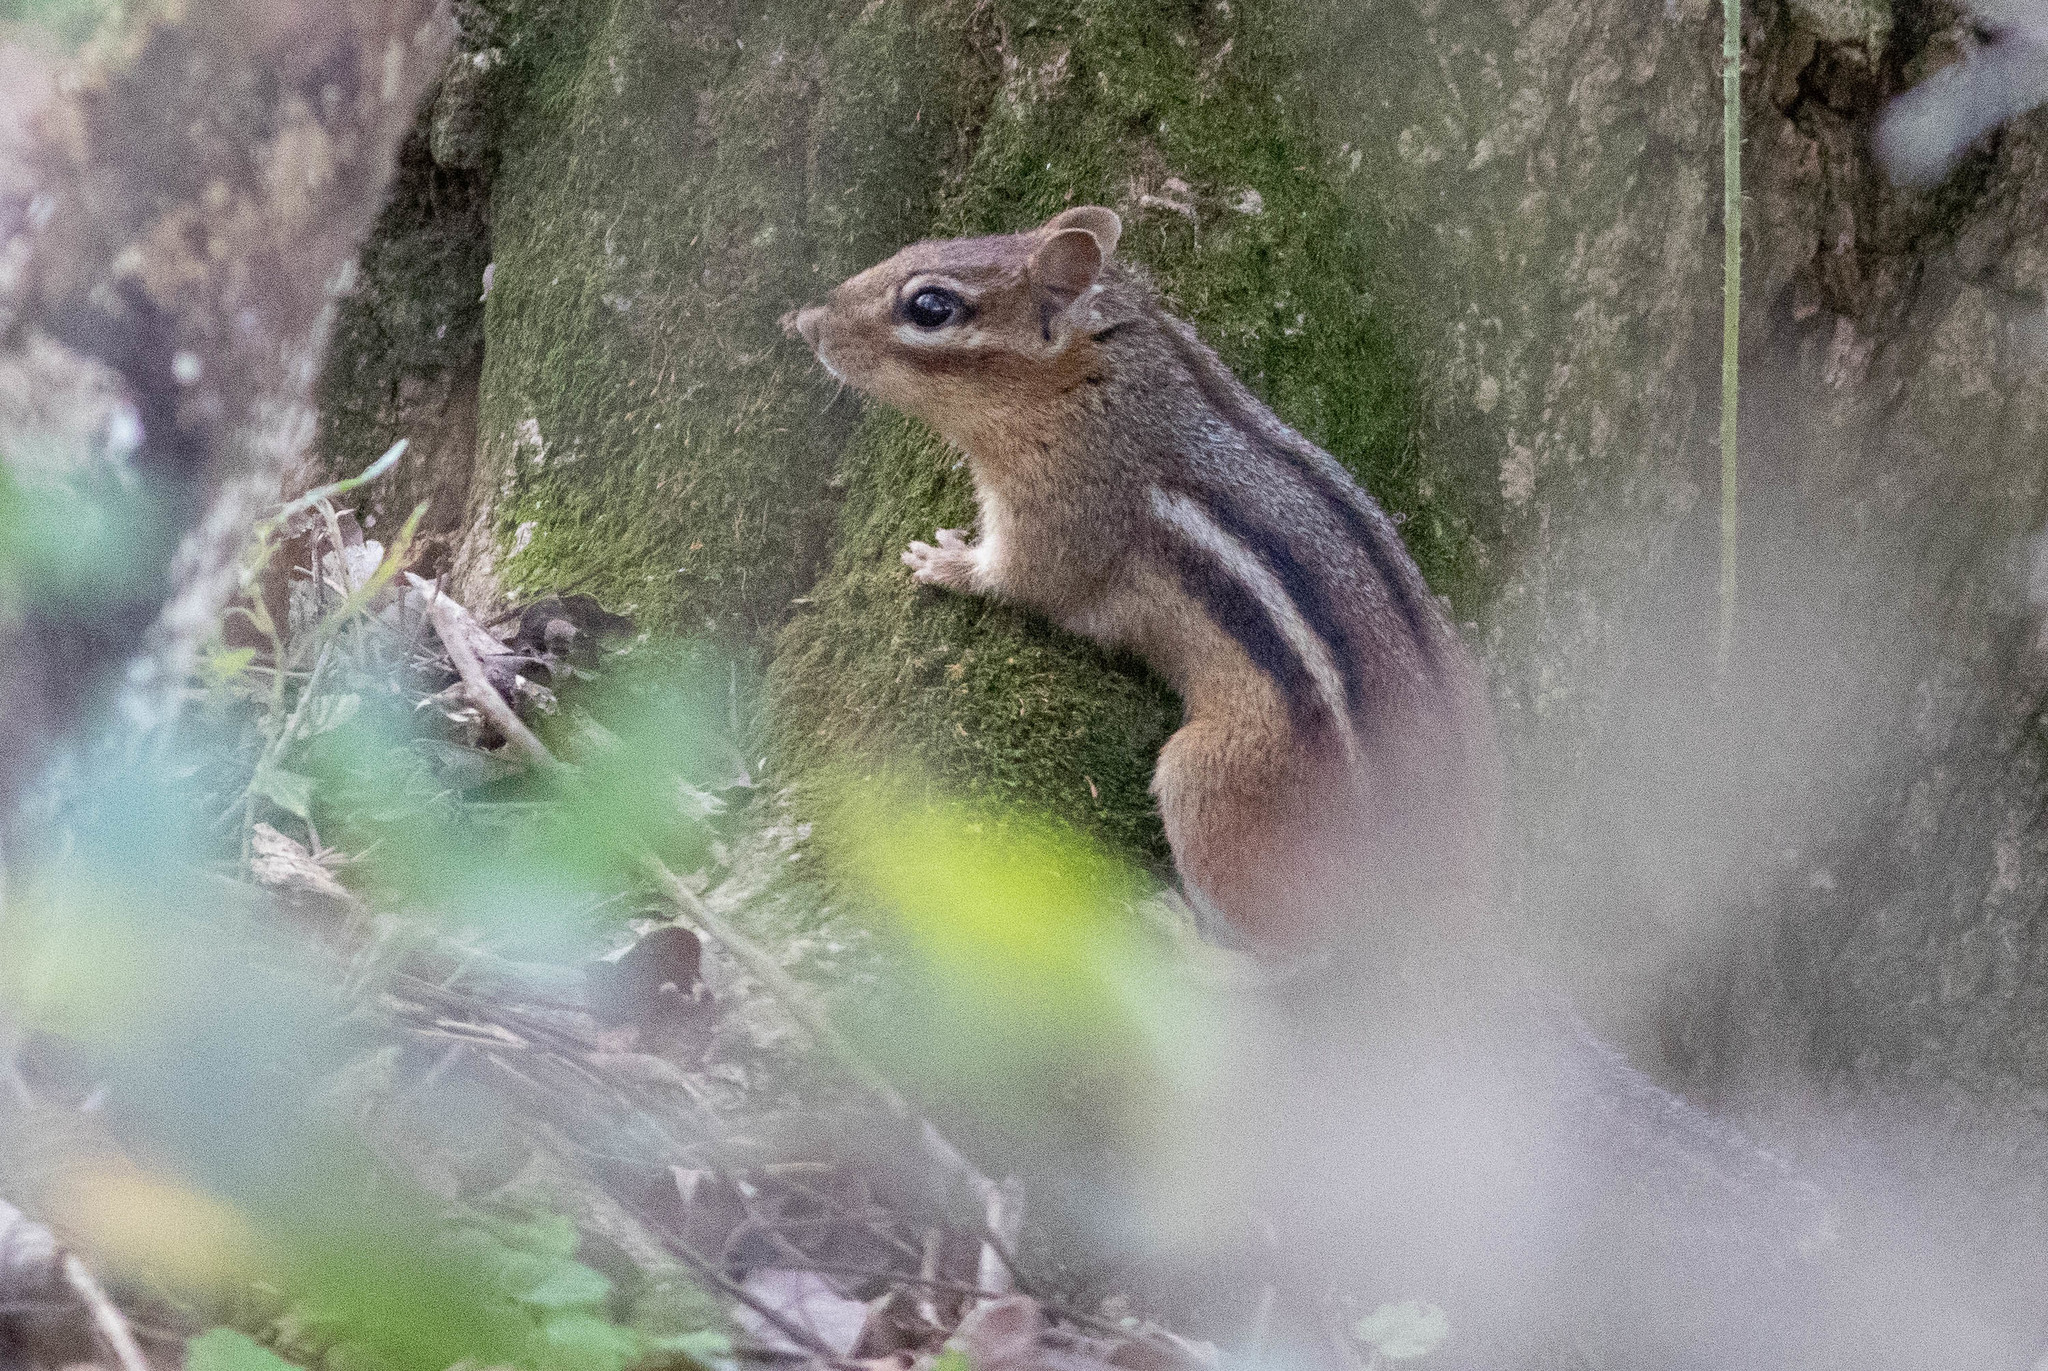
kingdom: Animalia
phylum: Chordata
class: Mammalia
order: Rodentia
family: Sciuridae
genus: Tamias
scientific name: Tamias striatus
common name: Eastern chipmunk
